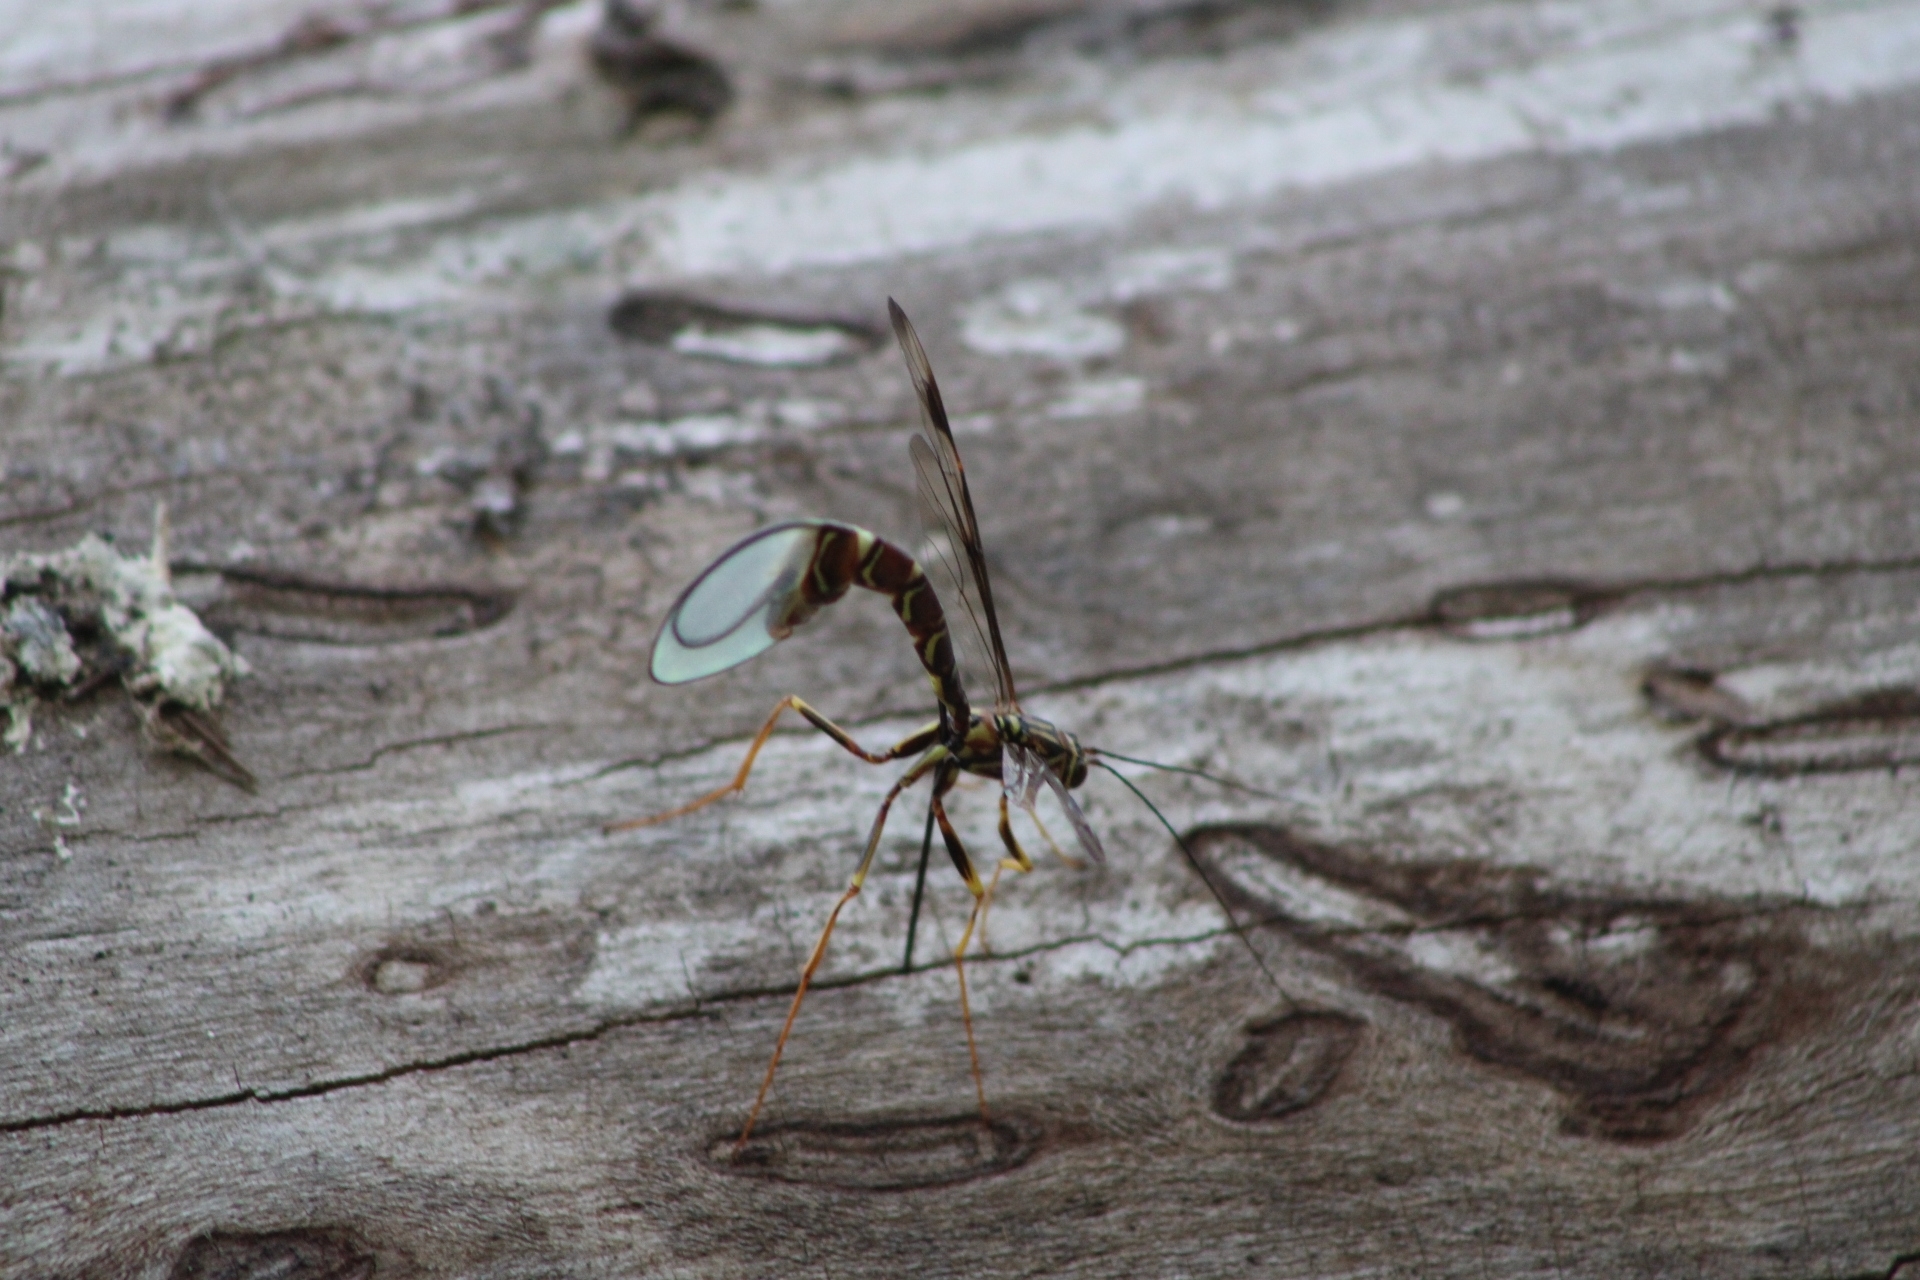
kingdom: Animalia
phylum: Arthropoda
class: Insecta
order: Hymenoptera
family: Ichneumonidae
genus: Megarhyssa
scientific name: Megarhyssa macrura
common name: Long-tailed giant ichneumonid wasp
